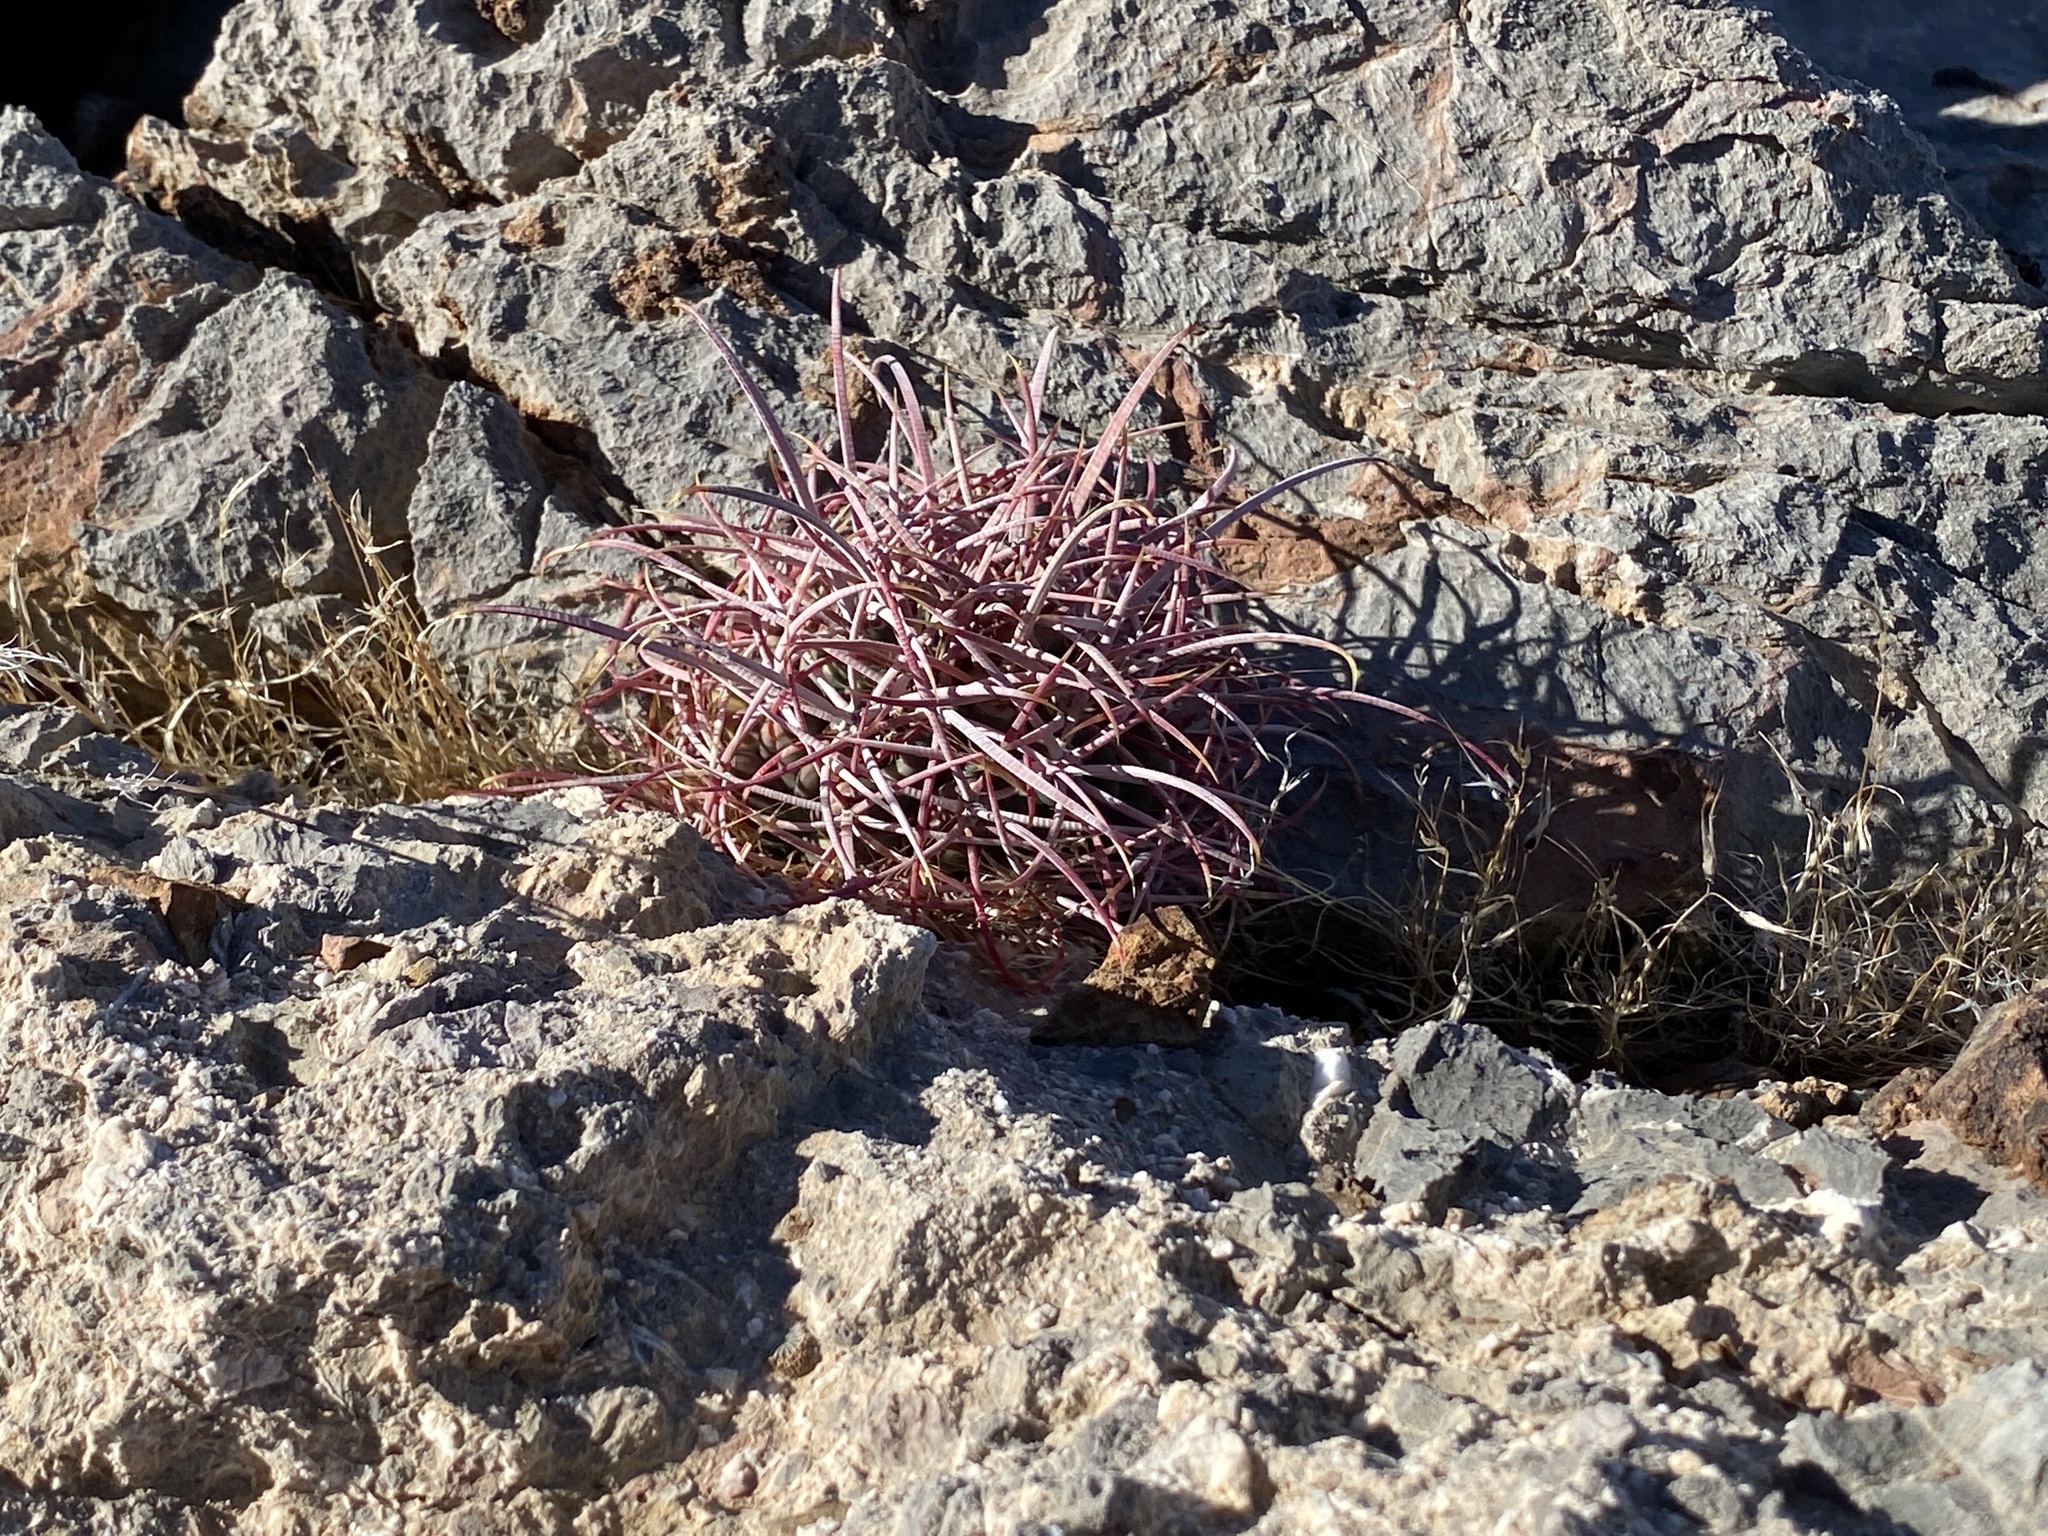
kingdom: Plantae
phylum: Tracheophyta
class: Magnoliopsida
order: Caryophyllales
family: Cactaceae
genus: Ferocactus
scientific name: Ferocactus cylindraceus
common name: California barrel cactus
